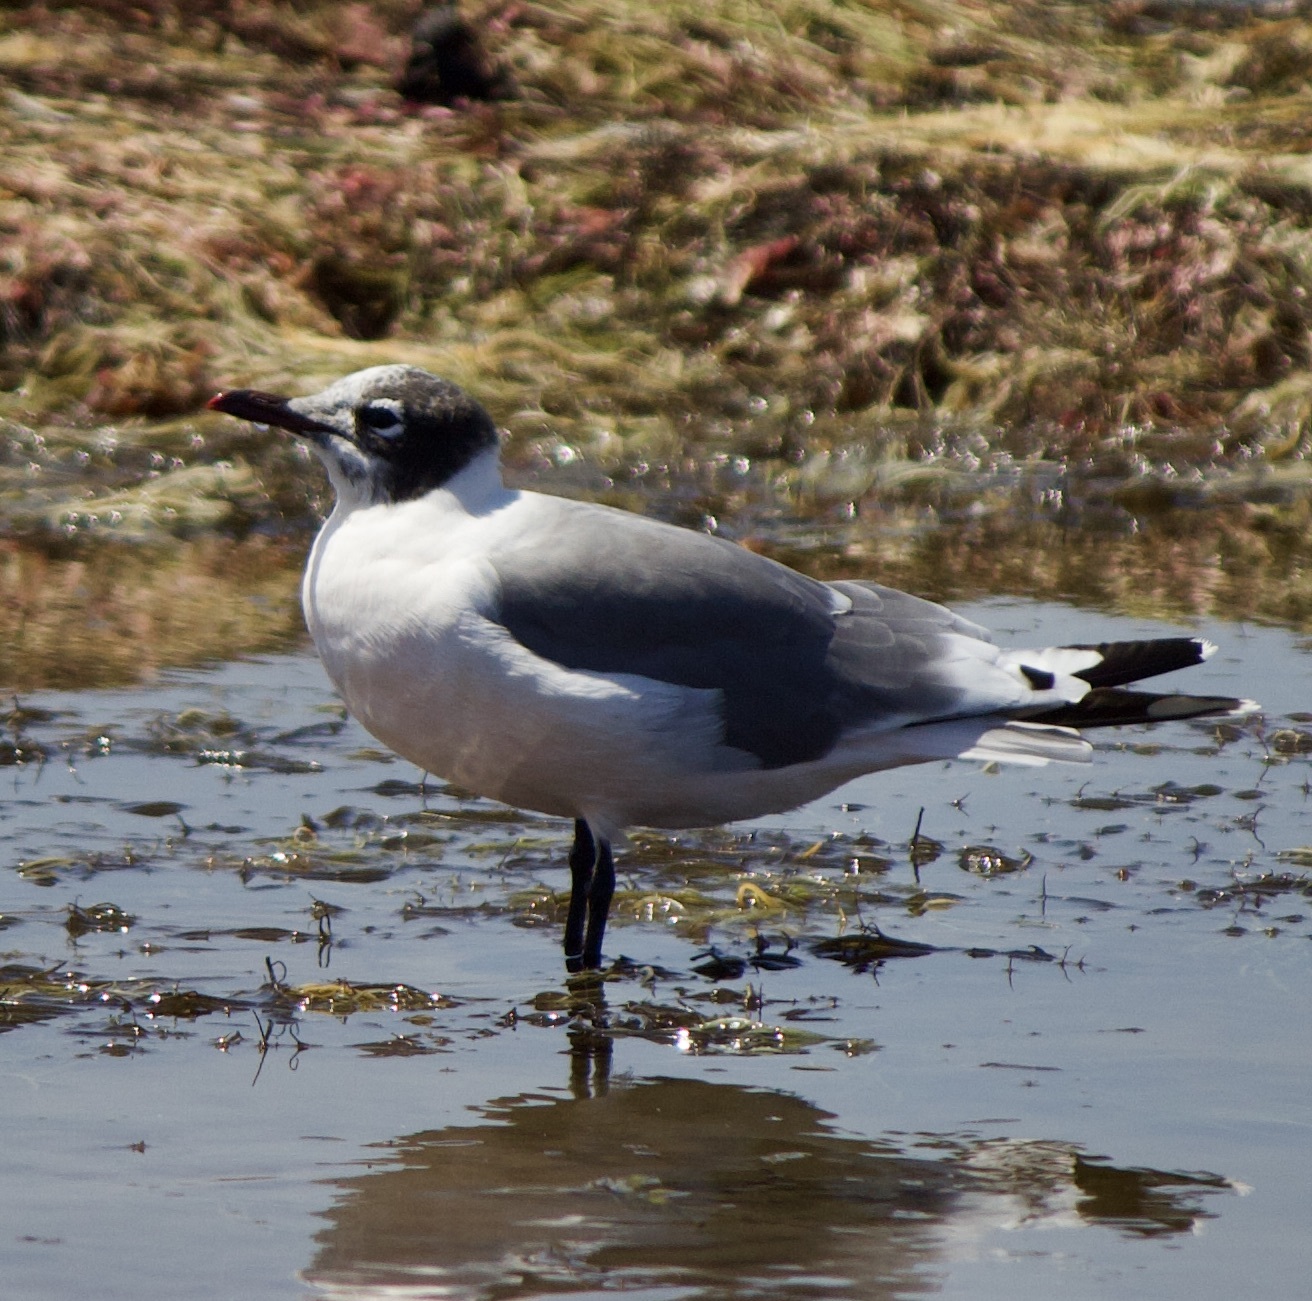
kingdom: Animalia
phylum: Chordata
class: Aves
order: Charadriiformes
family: Laridae
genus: Leucophaeus
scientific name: Leucophaeus pipixcan
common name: Franklin's gull
